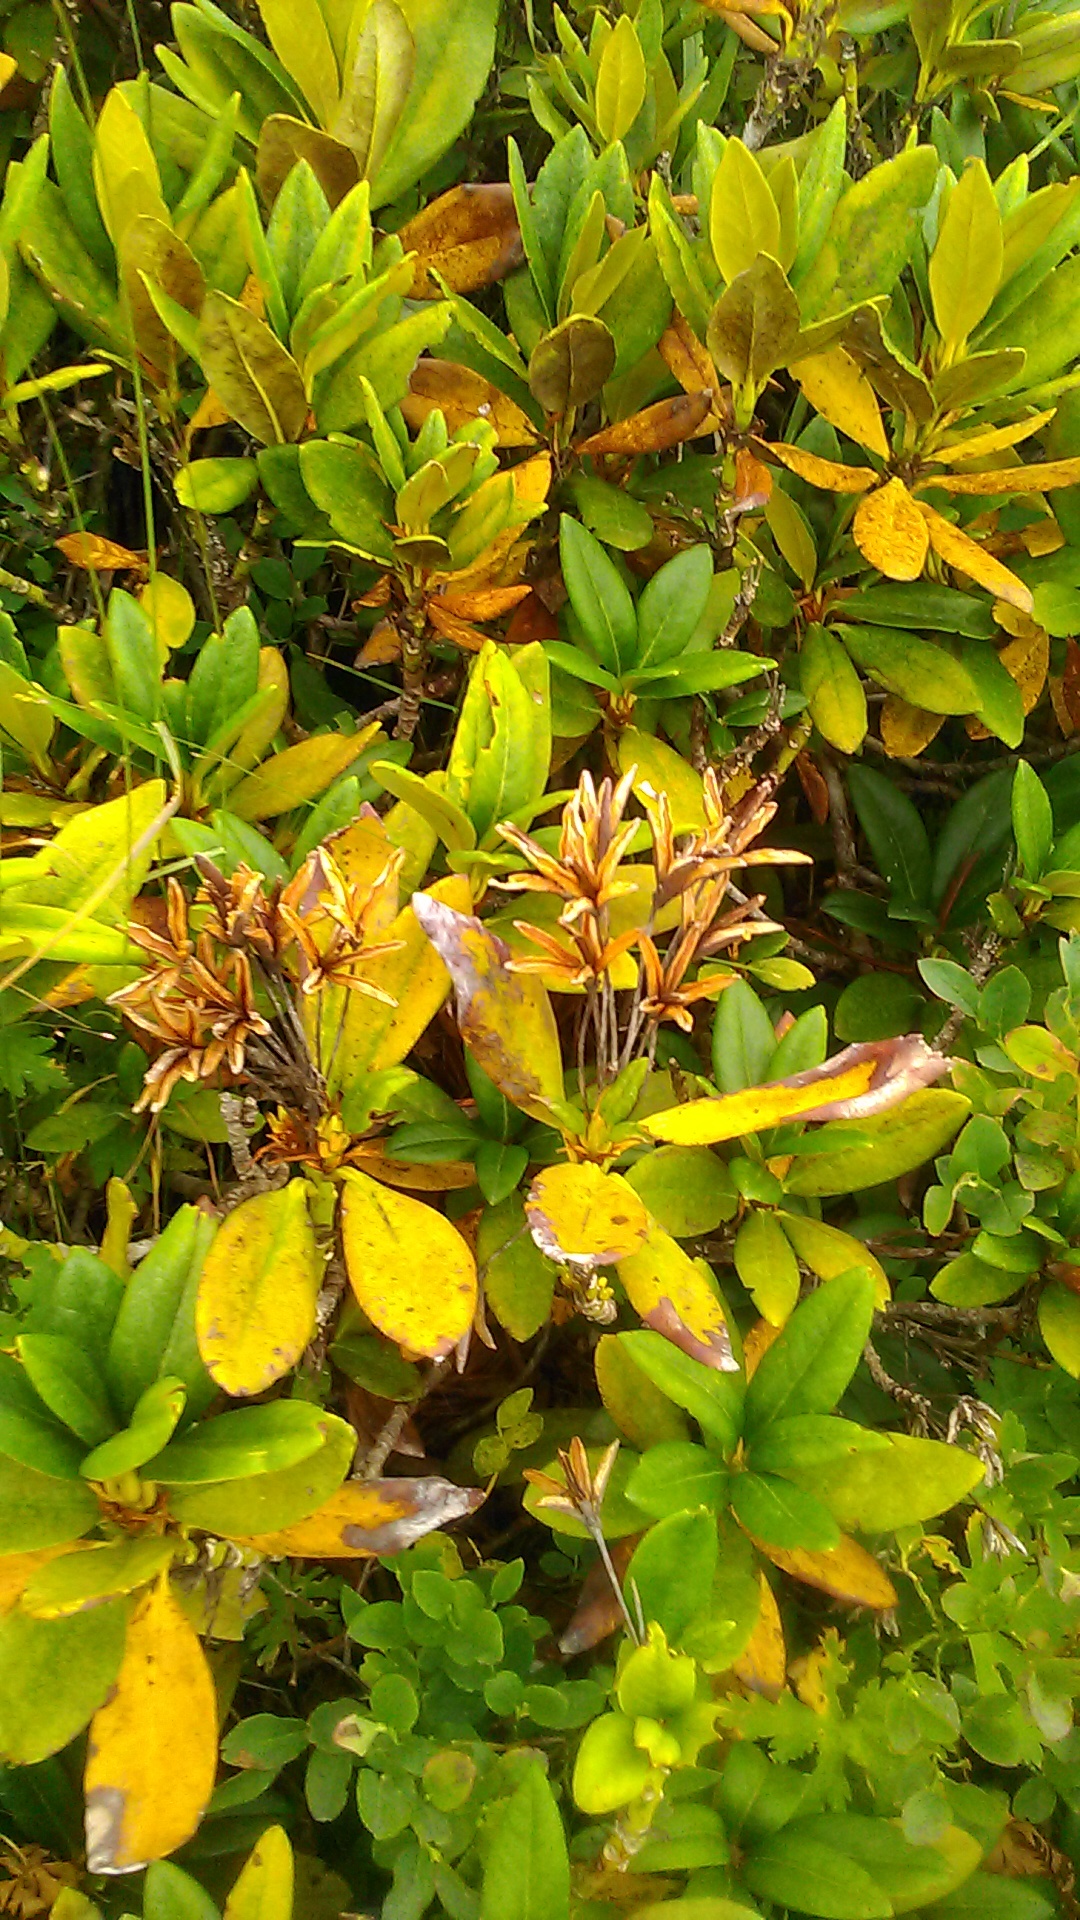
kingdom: Plantae
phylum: Tracheophyta
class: Magnoliopsida
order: Ericales
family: Ericaceae
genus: Rhododendron
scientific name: Rhododendron caucasicum
